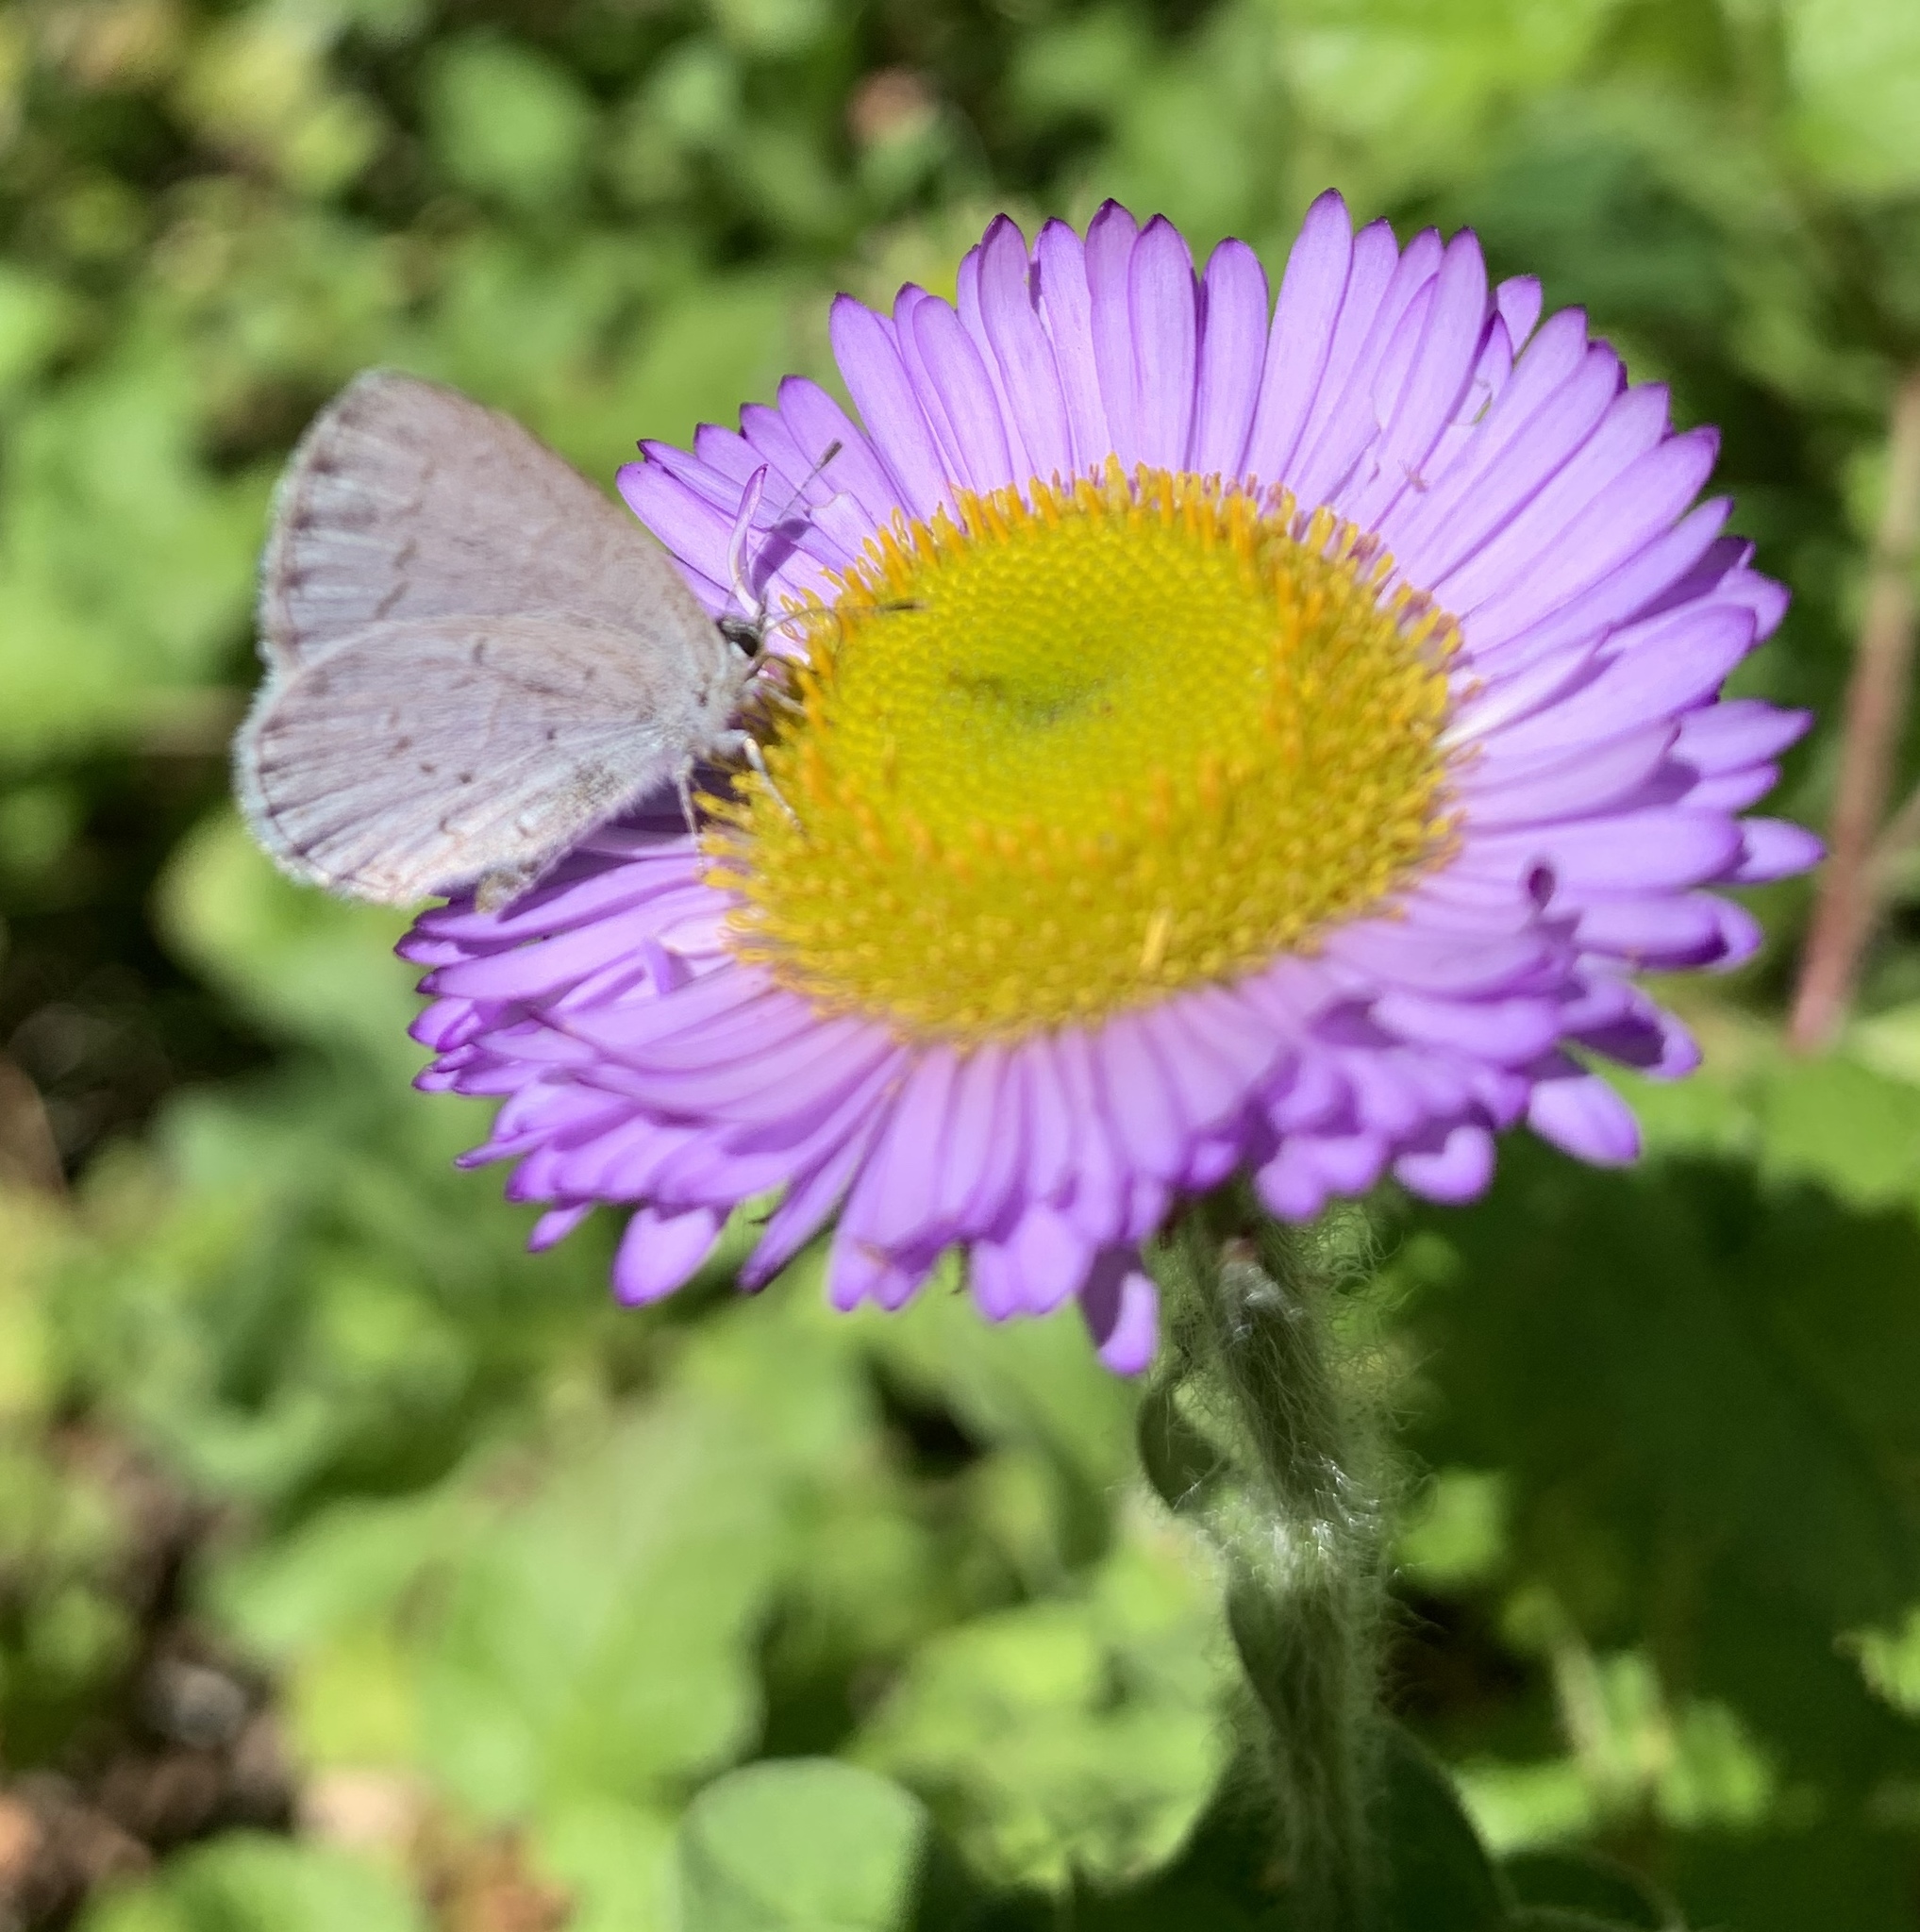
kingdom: Animalia
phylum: Arthropoda
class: Insecta
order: Lepidoptera
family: Lycaenidae
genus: Celastrina
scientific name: Celastrina ladon
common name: Spring azure
